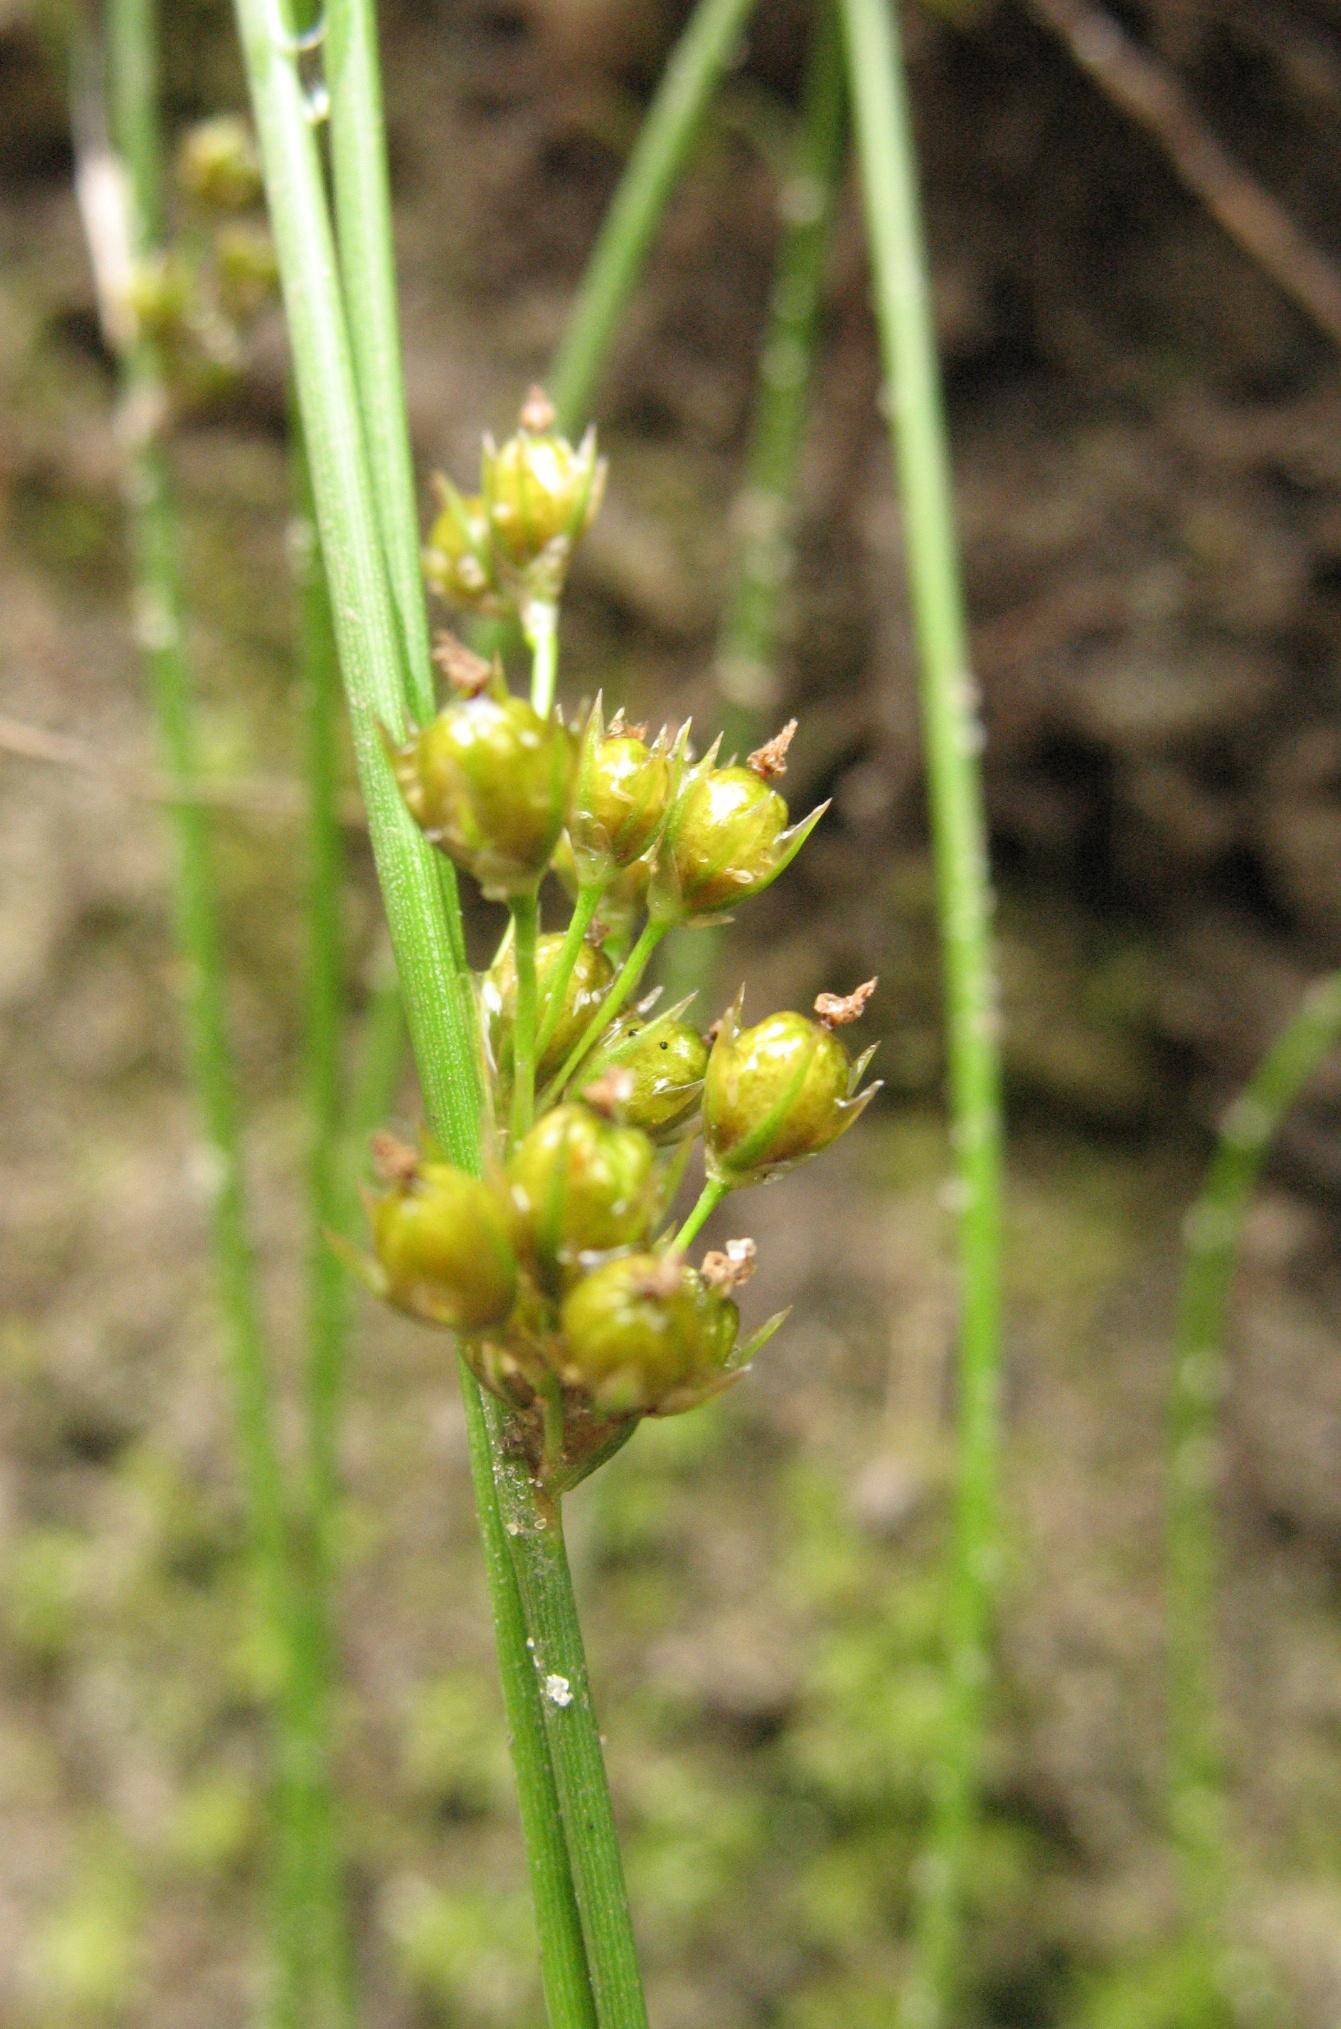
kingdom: Plantae
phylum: Tracheophyta
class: Liliopsida
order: Poales
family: Juncaceae
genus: Juncus
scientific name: Juncus filiformis
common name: Thread rush
